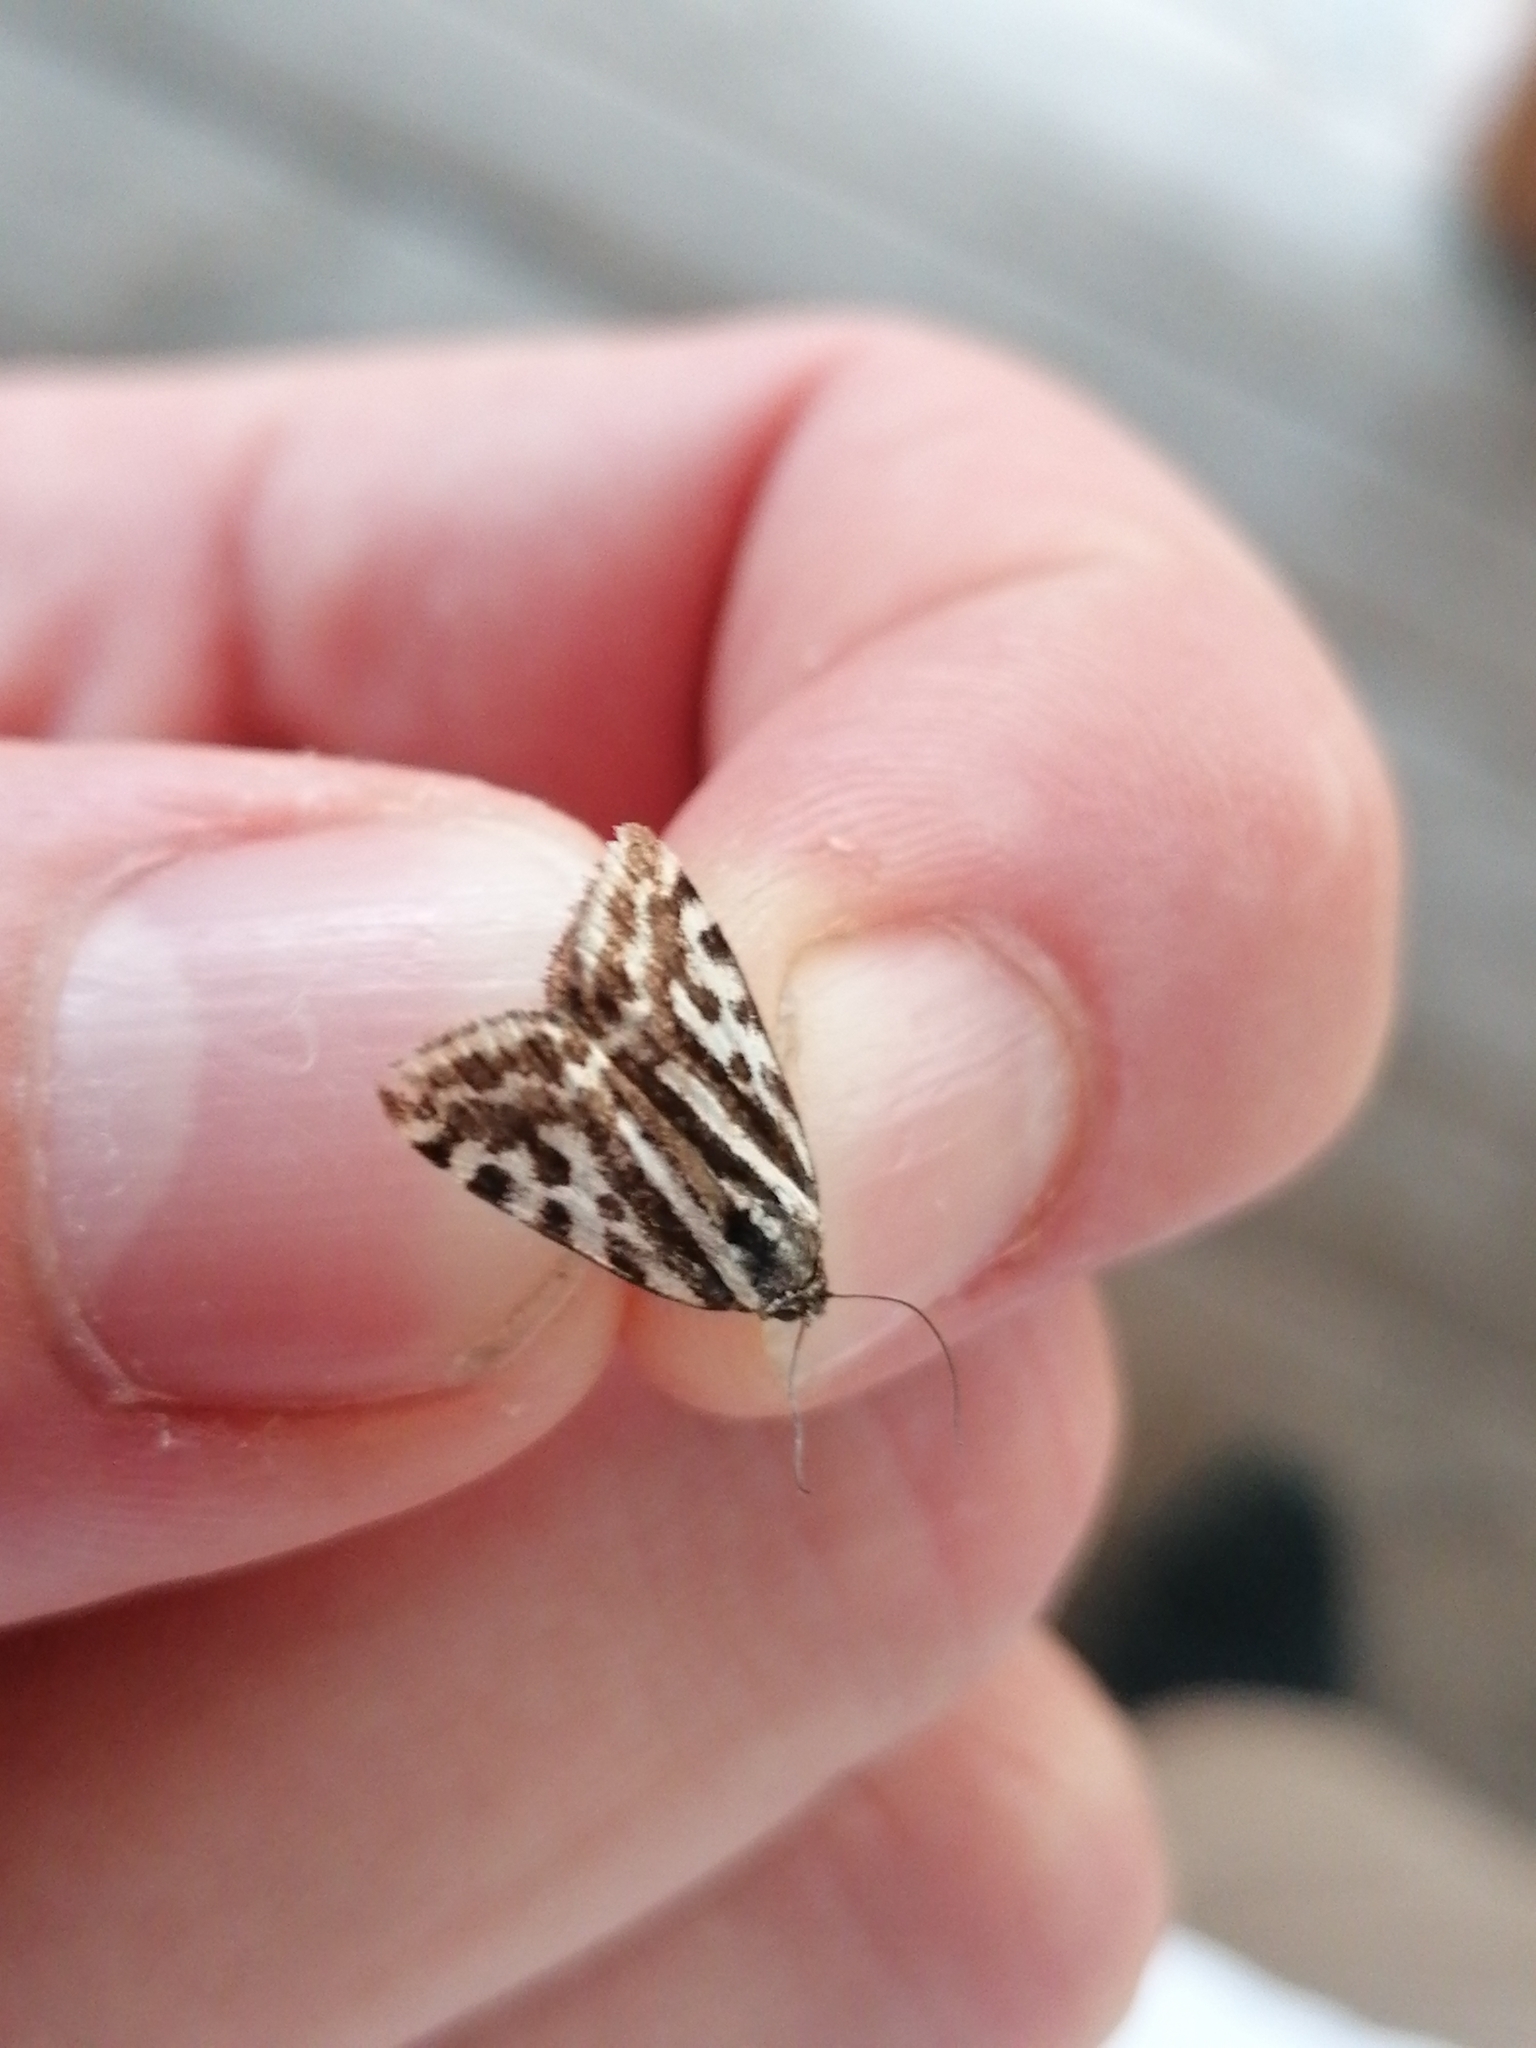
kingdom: Animalia
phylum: Arthropoda
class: Insecta
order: Lepidoptera
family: Noctuidae
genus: Acontia
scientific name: Acontia trabealis
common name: Spotted sulphur
